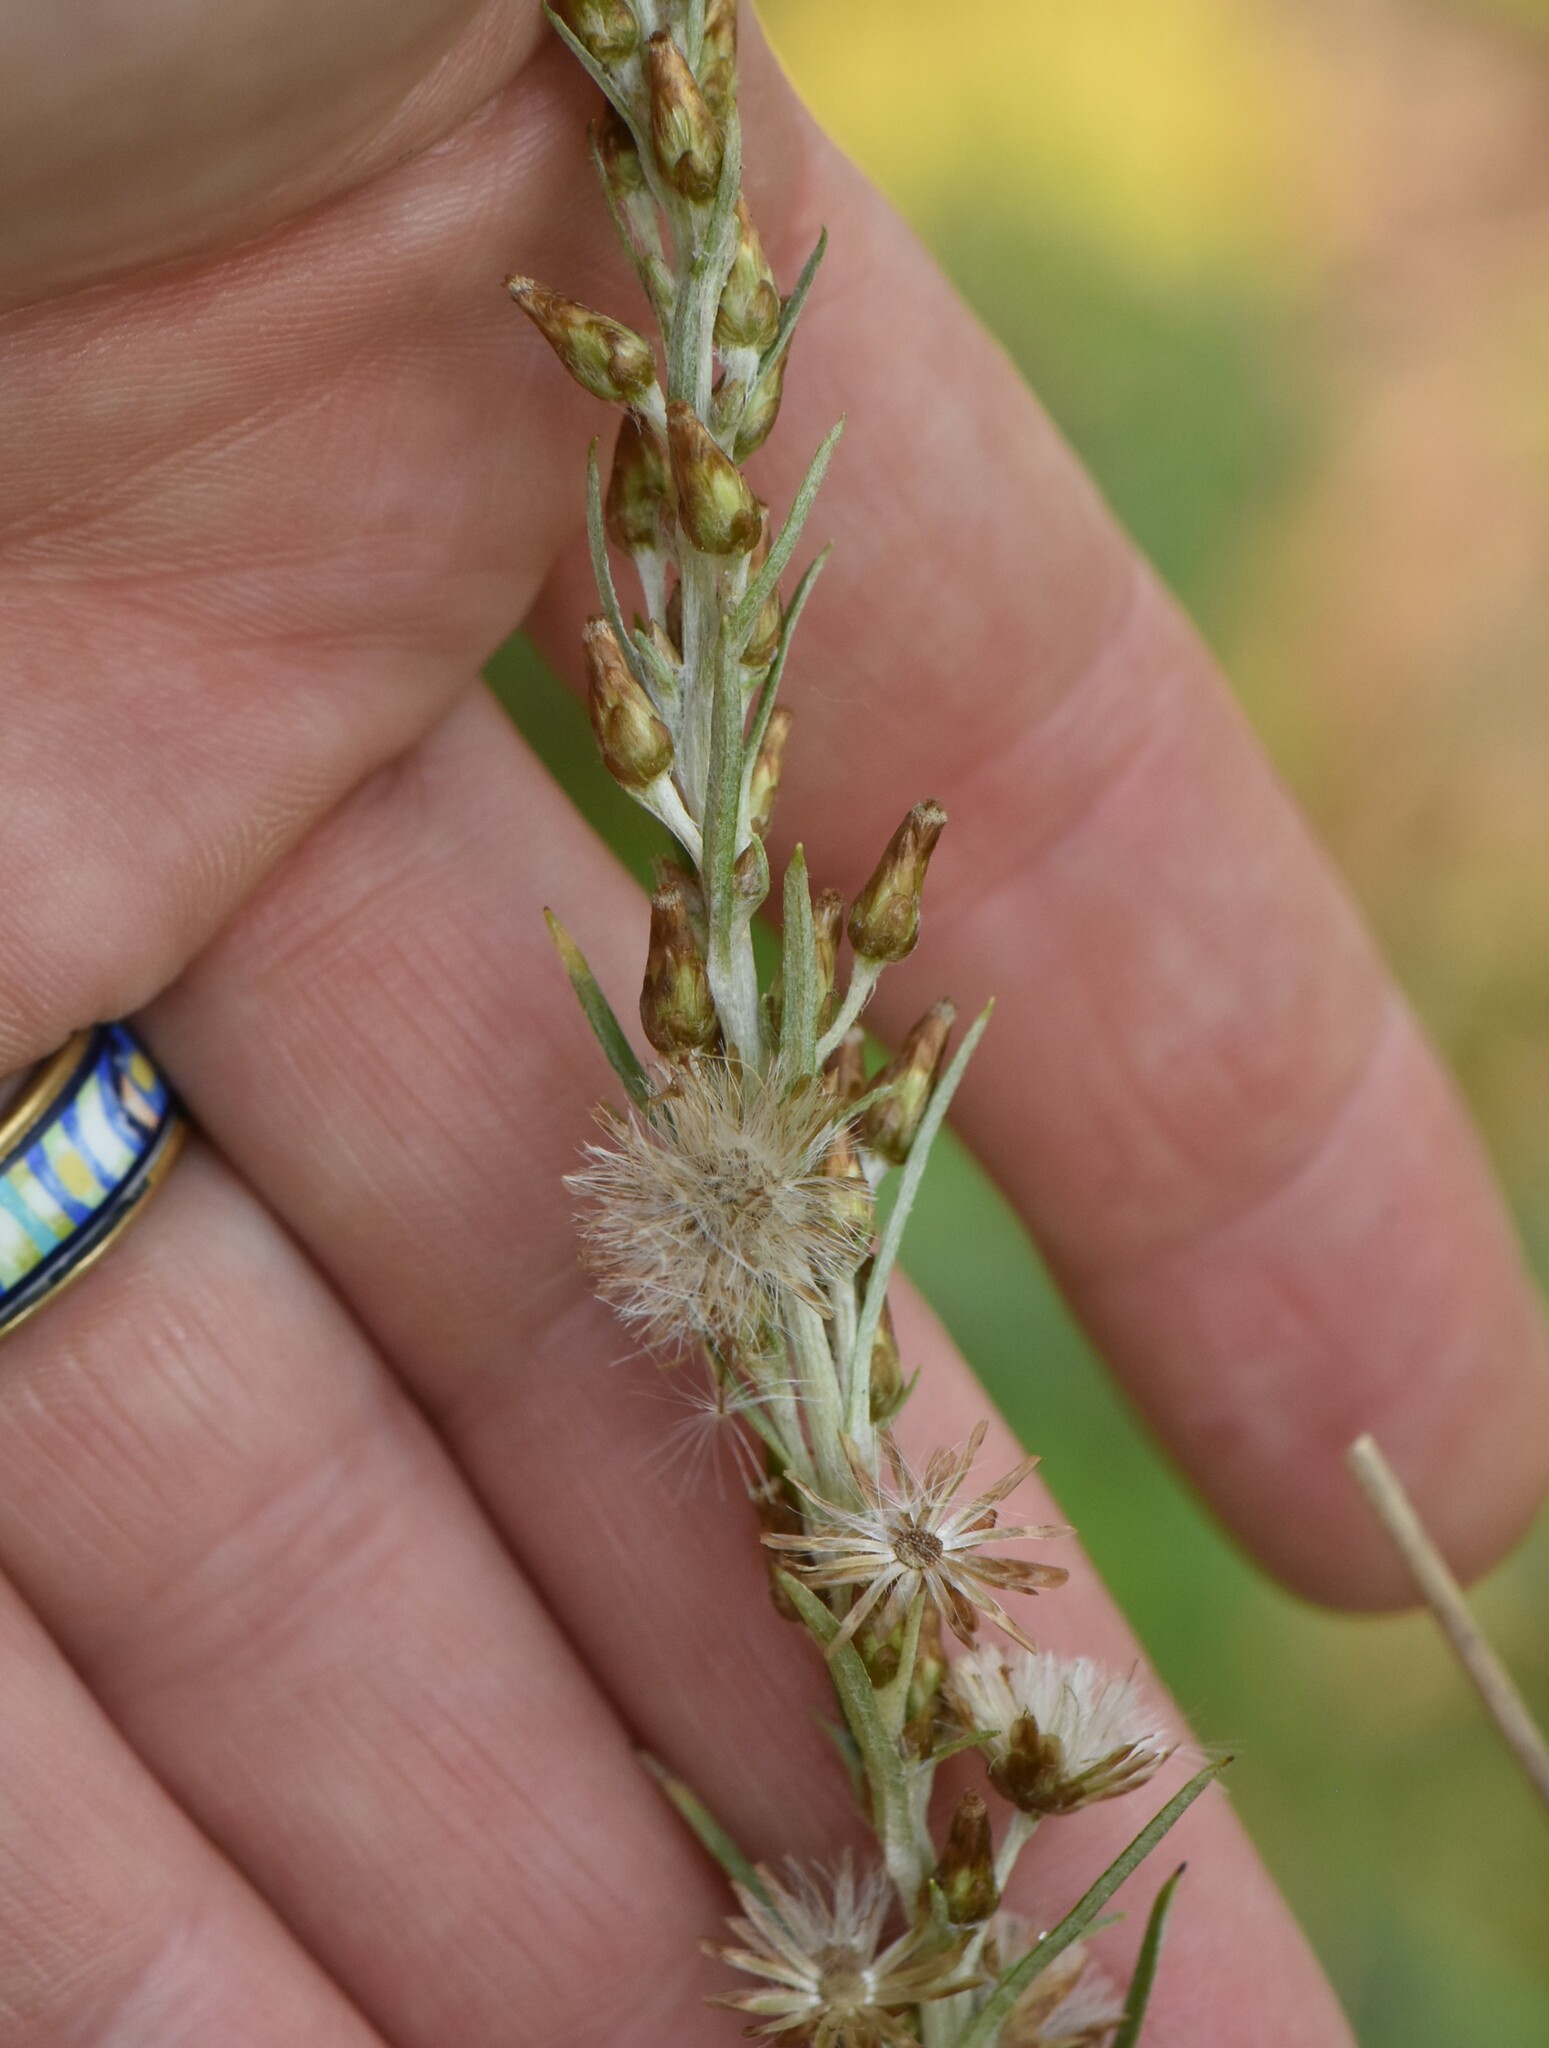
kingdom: Plantae
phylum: Tracheophyta
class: Magnoliopsida
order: Asterales
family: Asteraceae
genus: Omalotheca
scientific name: Omalotheca sylvatica
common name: Heath cudweed
